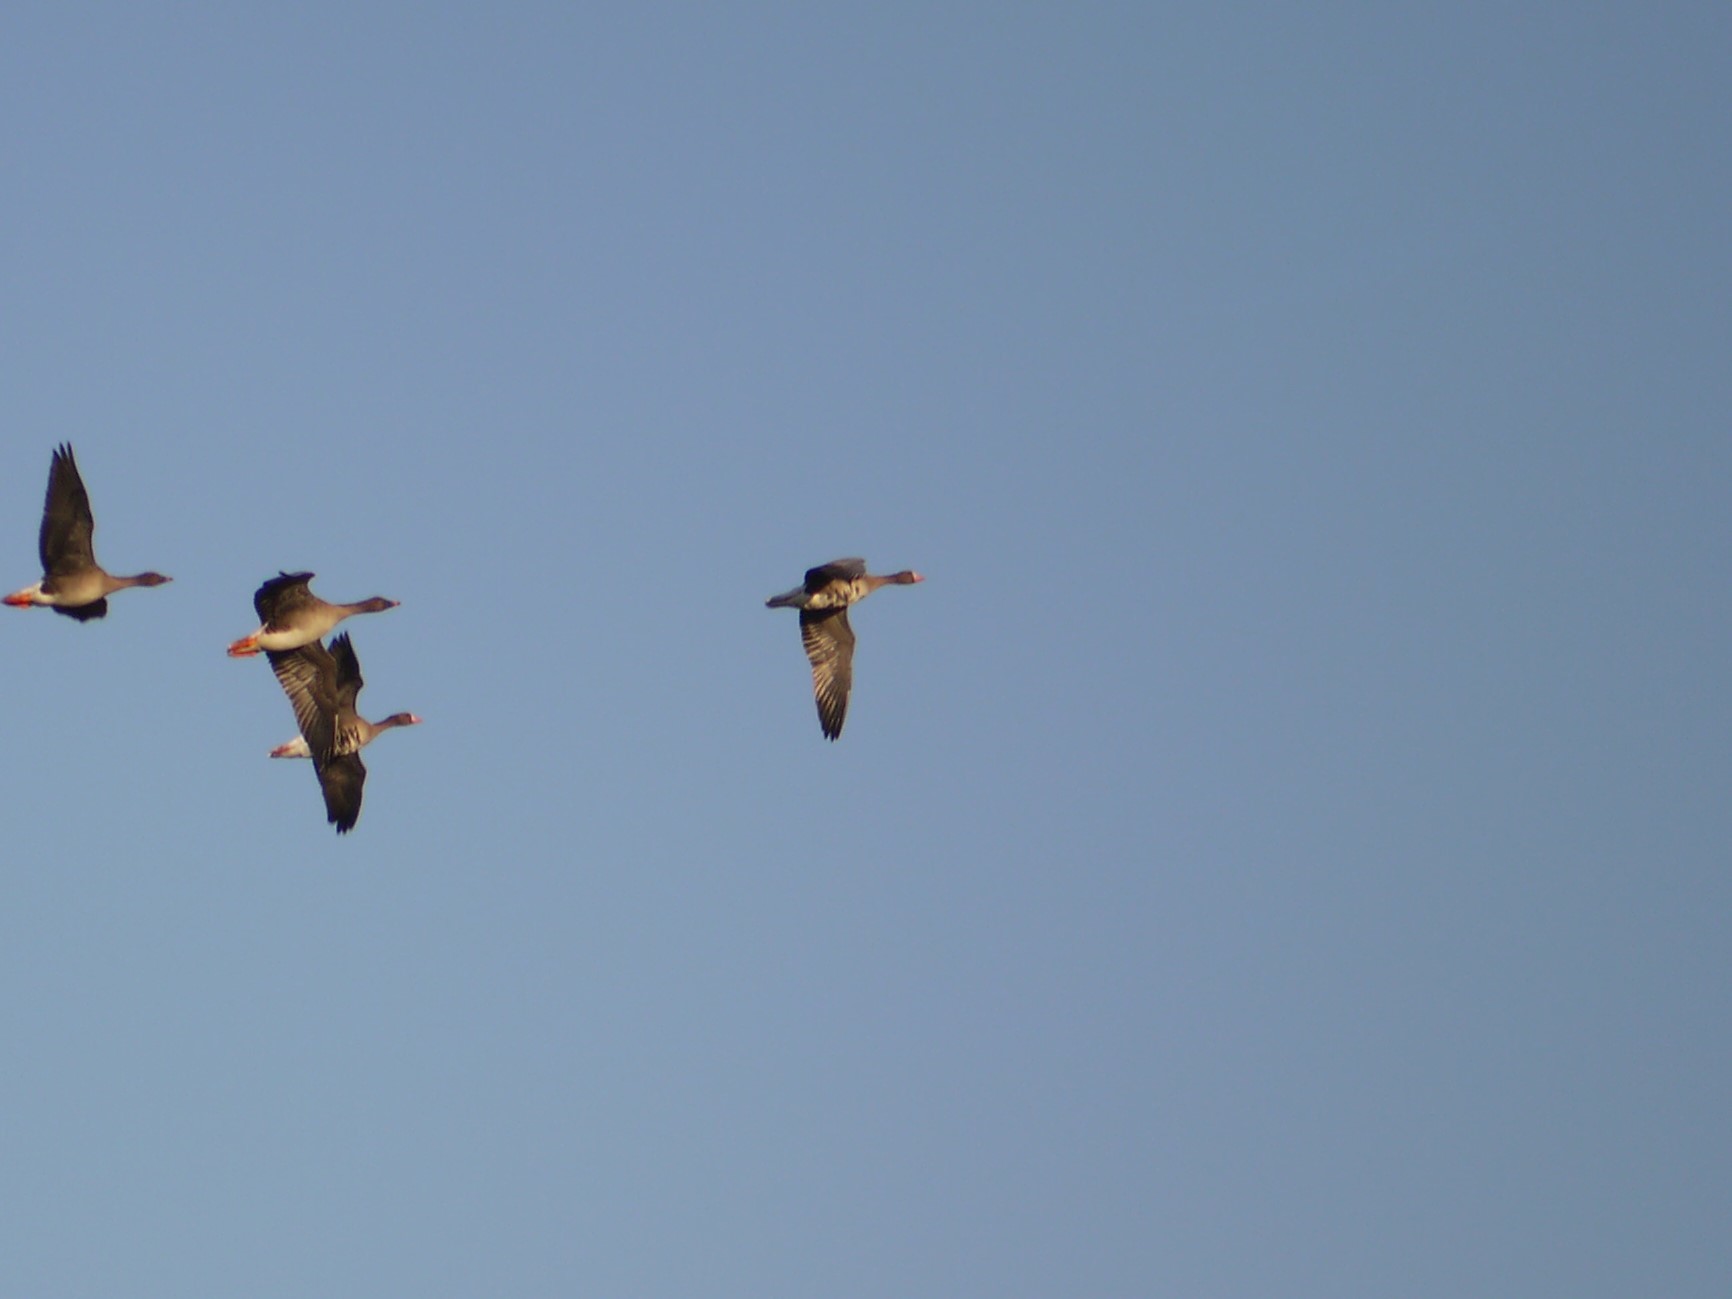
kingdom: Animalia
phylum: Chordata
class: Aves
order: Anseriformes
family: Anatidae
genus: Anser
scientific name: Anser albifrons
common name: Greater white-fronted goose
